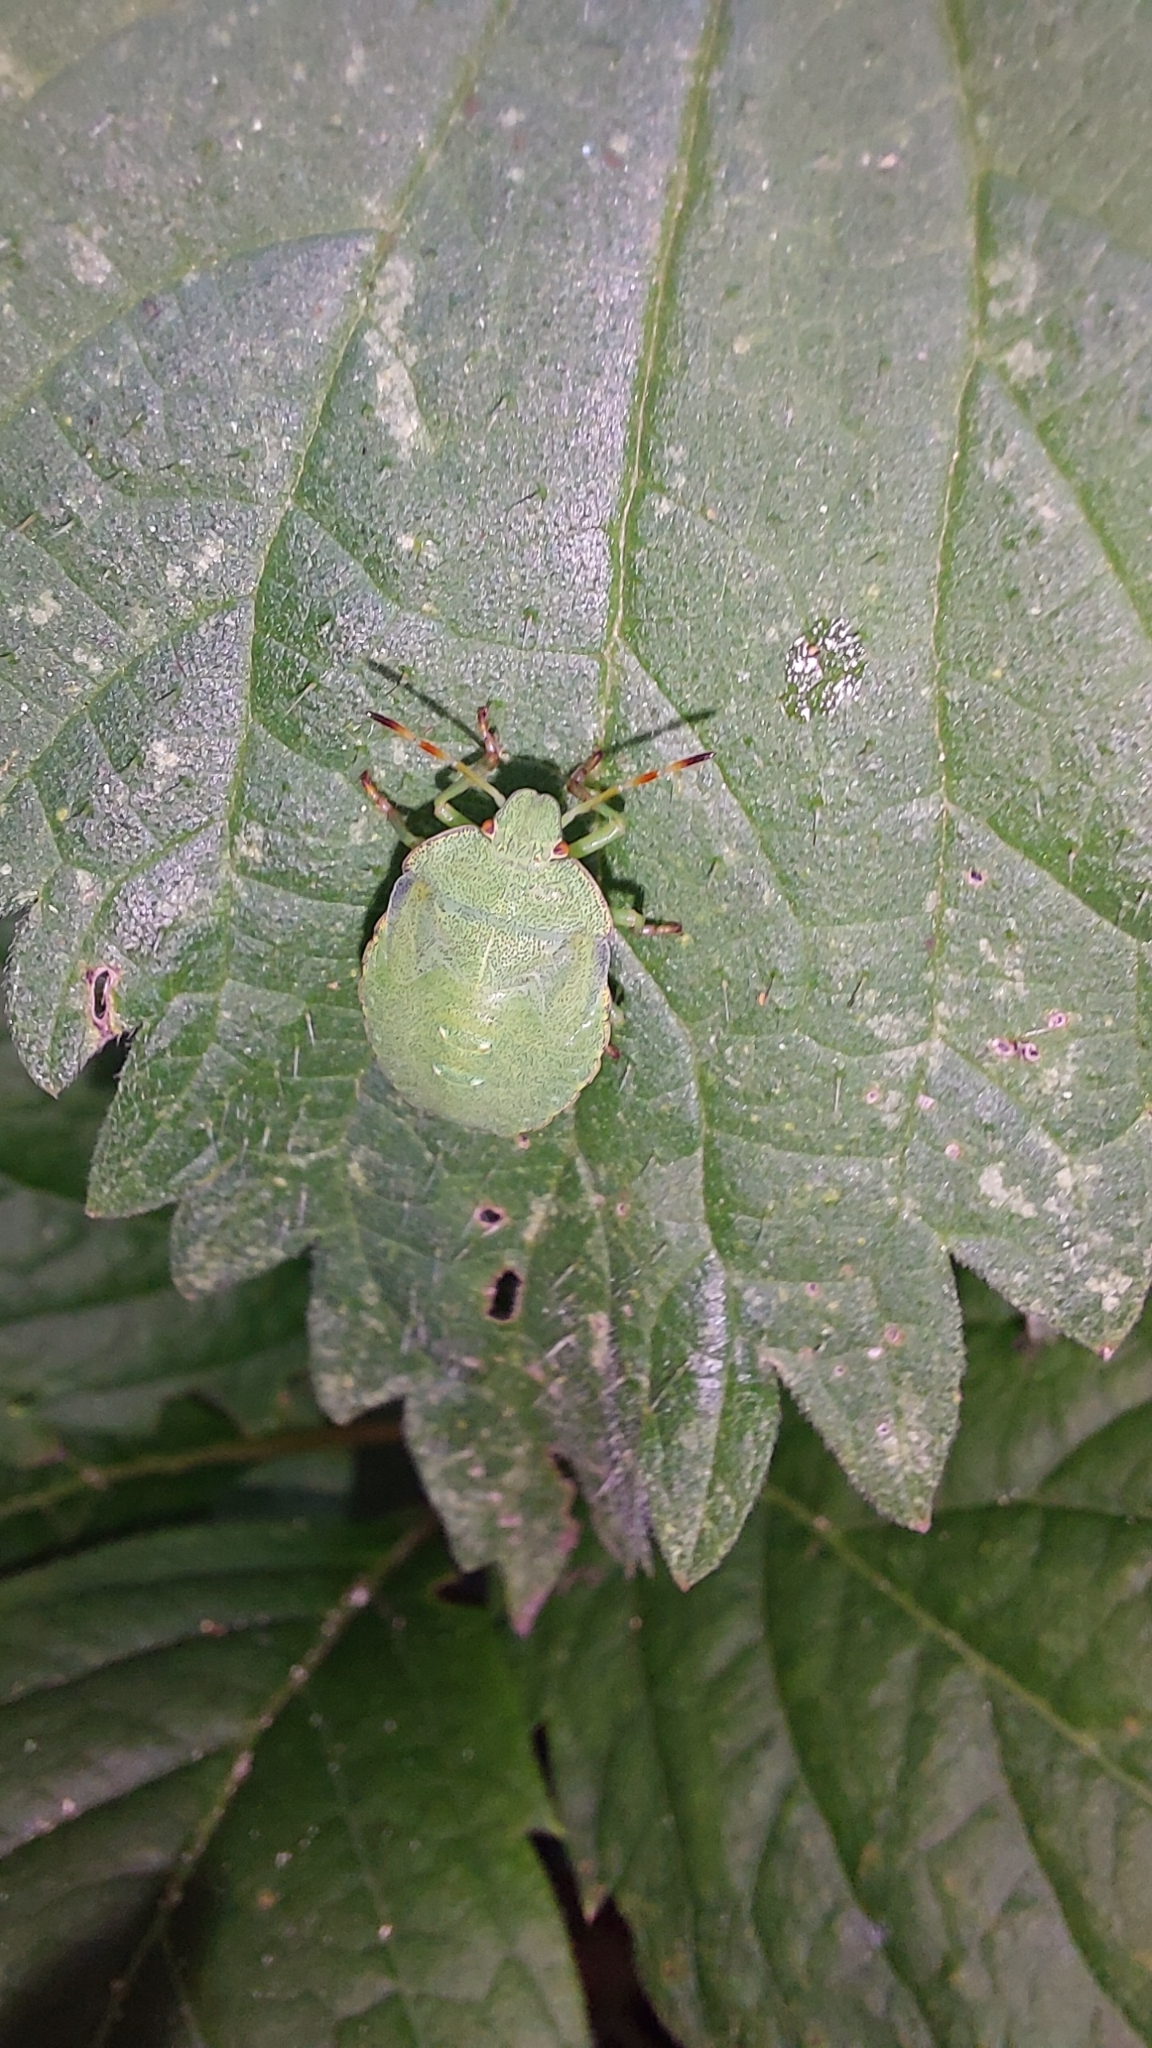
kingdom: Animalia
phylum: Arthropoda
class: Insecta
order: Hemiptera
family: Pentatomidae
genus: Palomena
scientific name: Palomena prasina
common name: Green shieldbug
